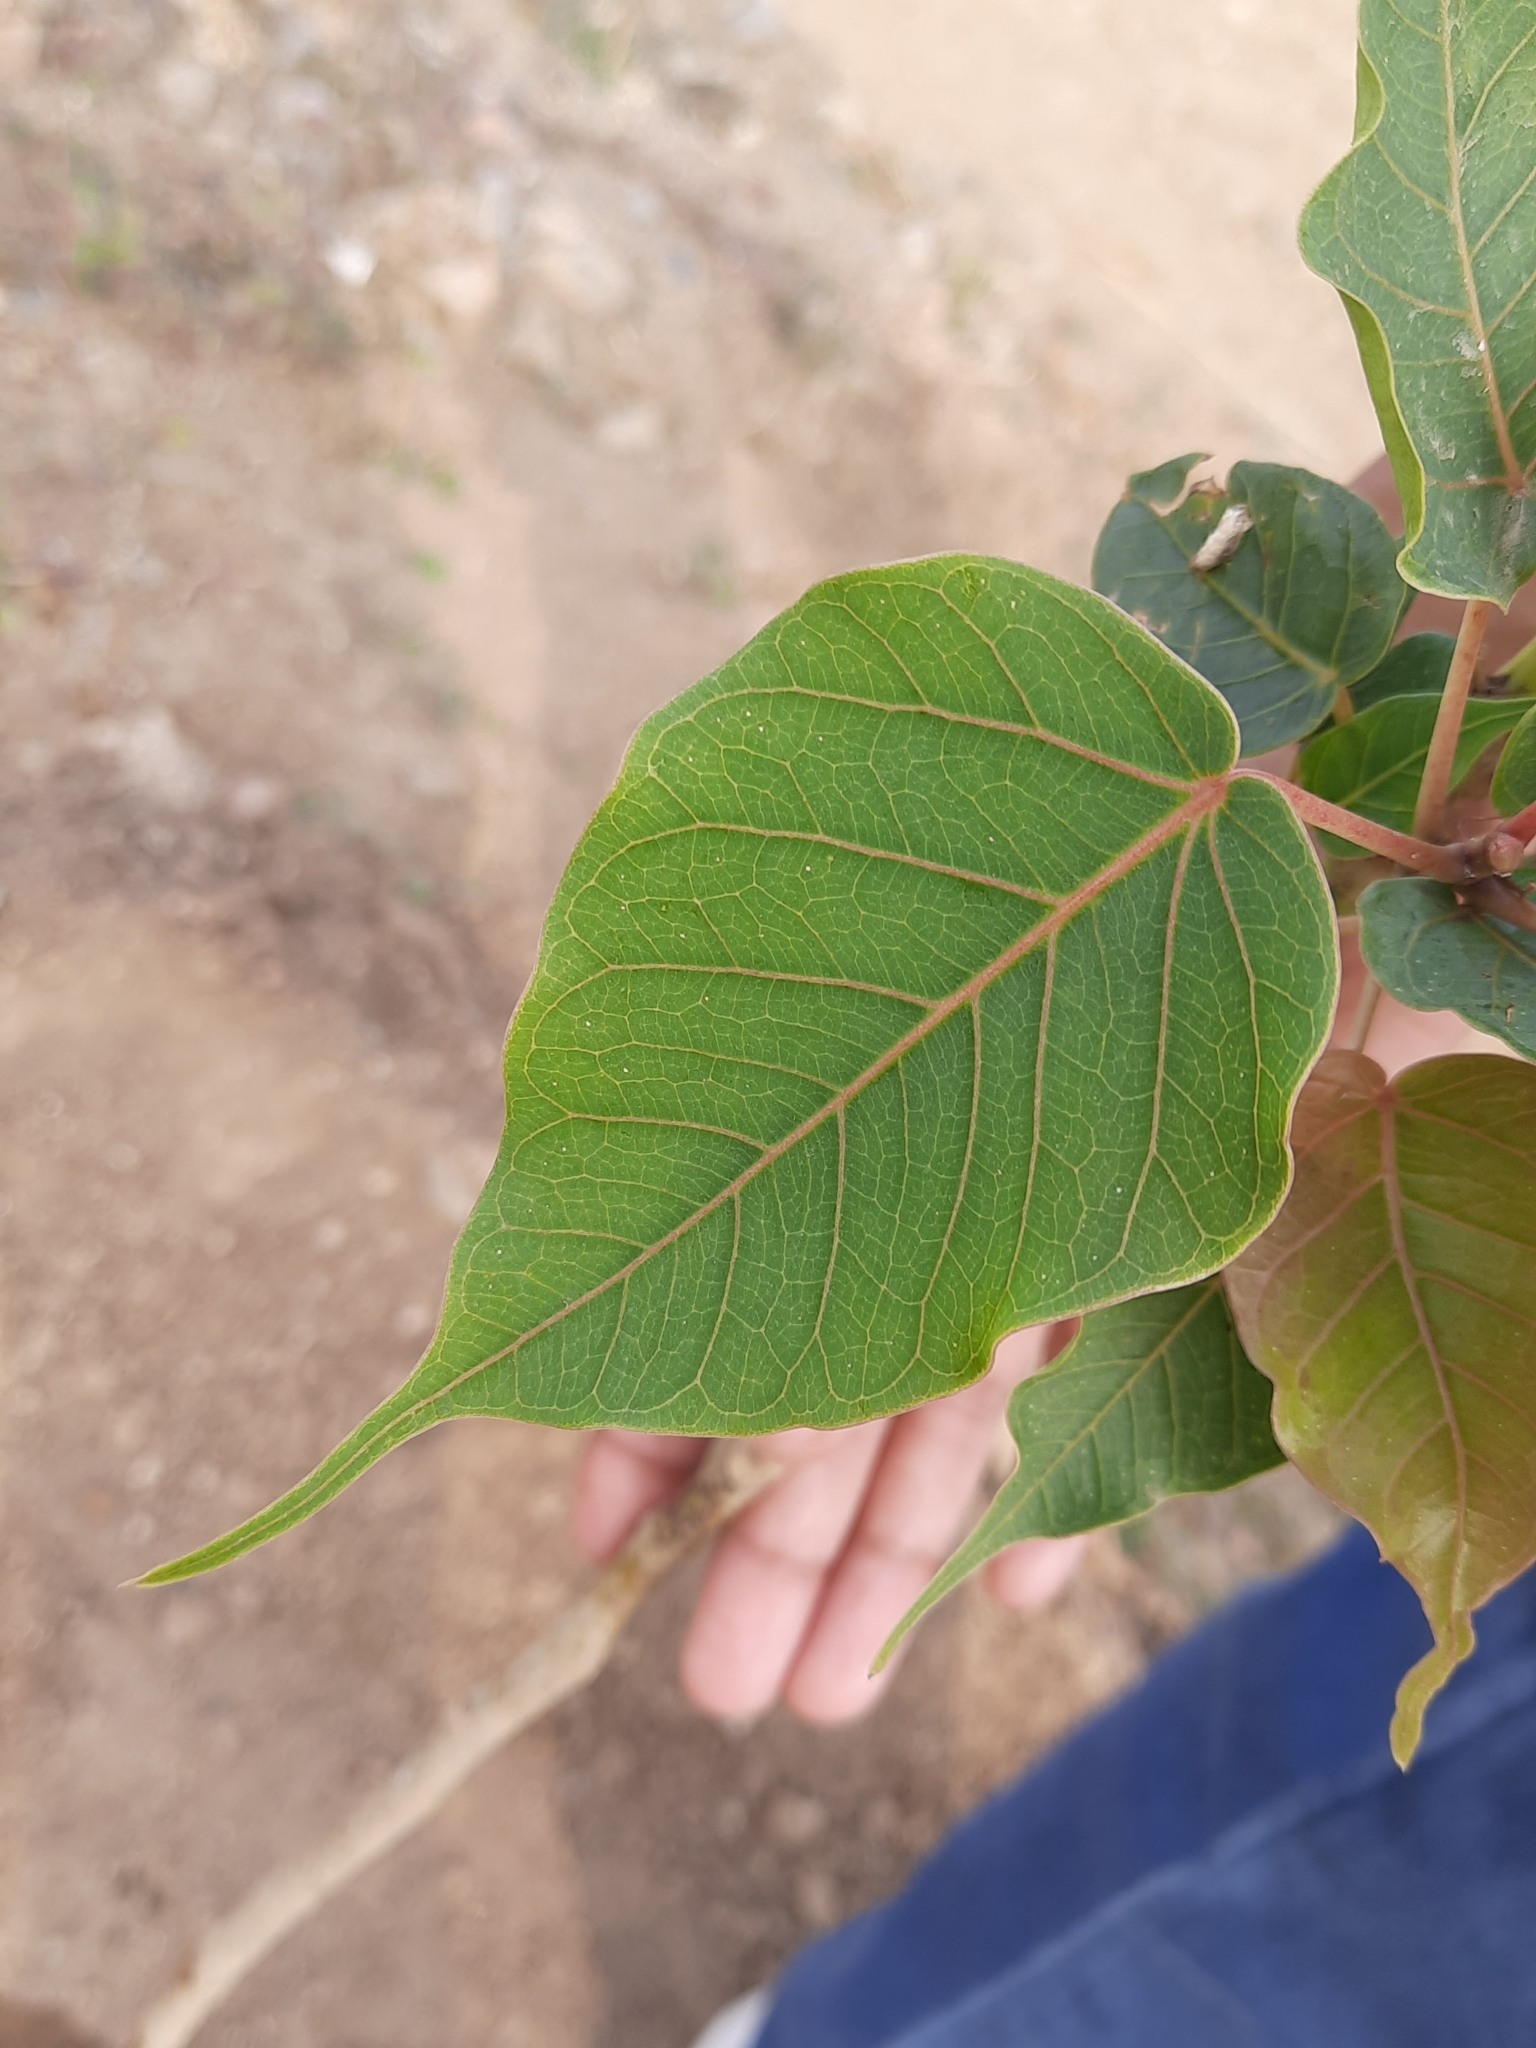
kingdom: Plantae
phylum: Tracheophyta
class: Magnoliopsida
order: Rosales
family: Moraceae
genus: Ficus
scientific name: Ficus religiosa
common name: Bodhi tree
